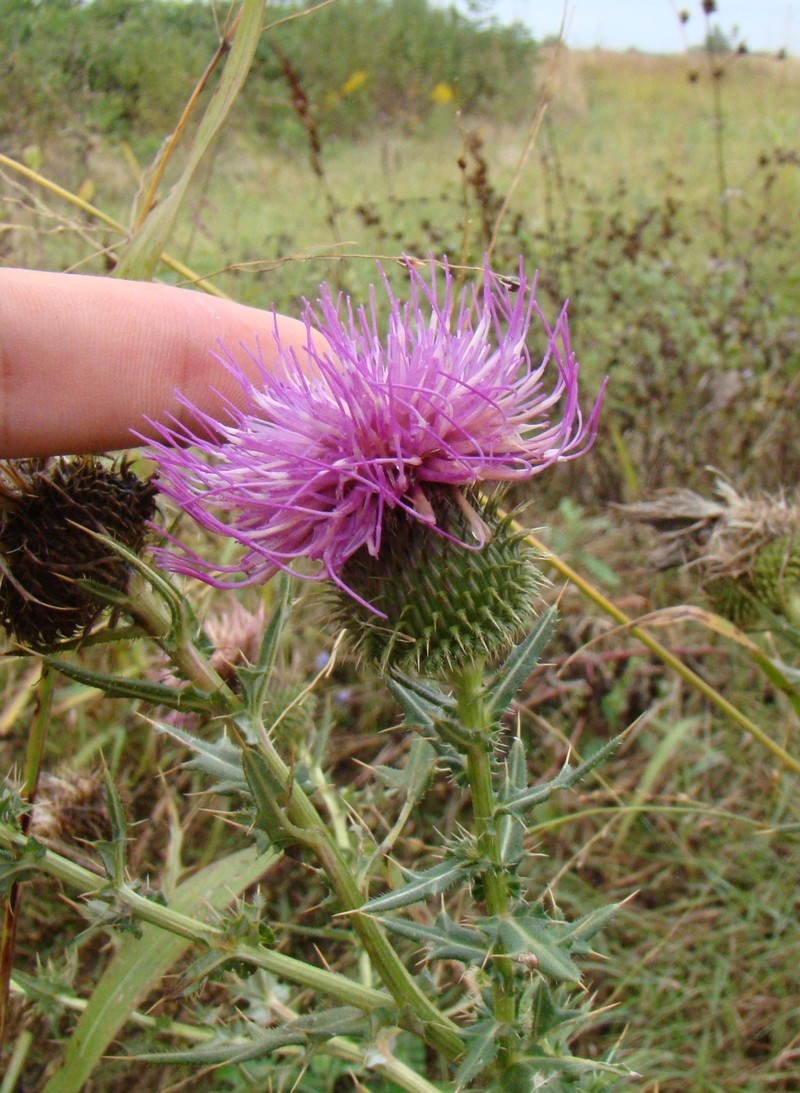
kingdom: Plantae
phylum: Tracheophyta
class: Magnoliopsida
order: Asterales
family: Asteraceae
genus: Cirsium
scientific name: Cirsium serrulatum
